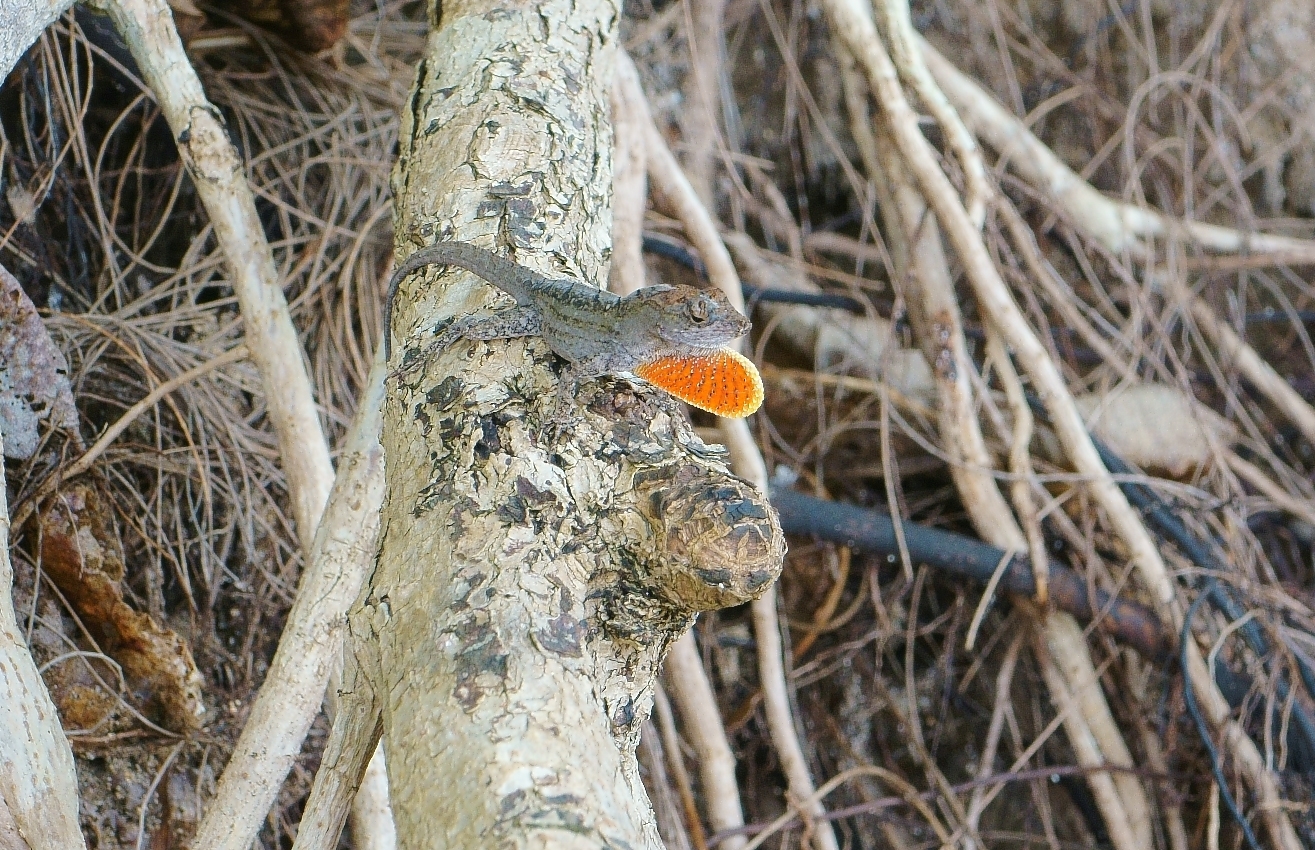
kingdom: Animalia
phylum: Chordata
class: Squamata
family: Dactyloidae
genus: Anolis
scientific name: Anolis sagrei
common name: Brown anole
